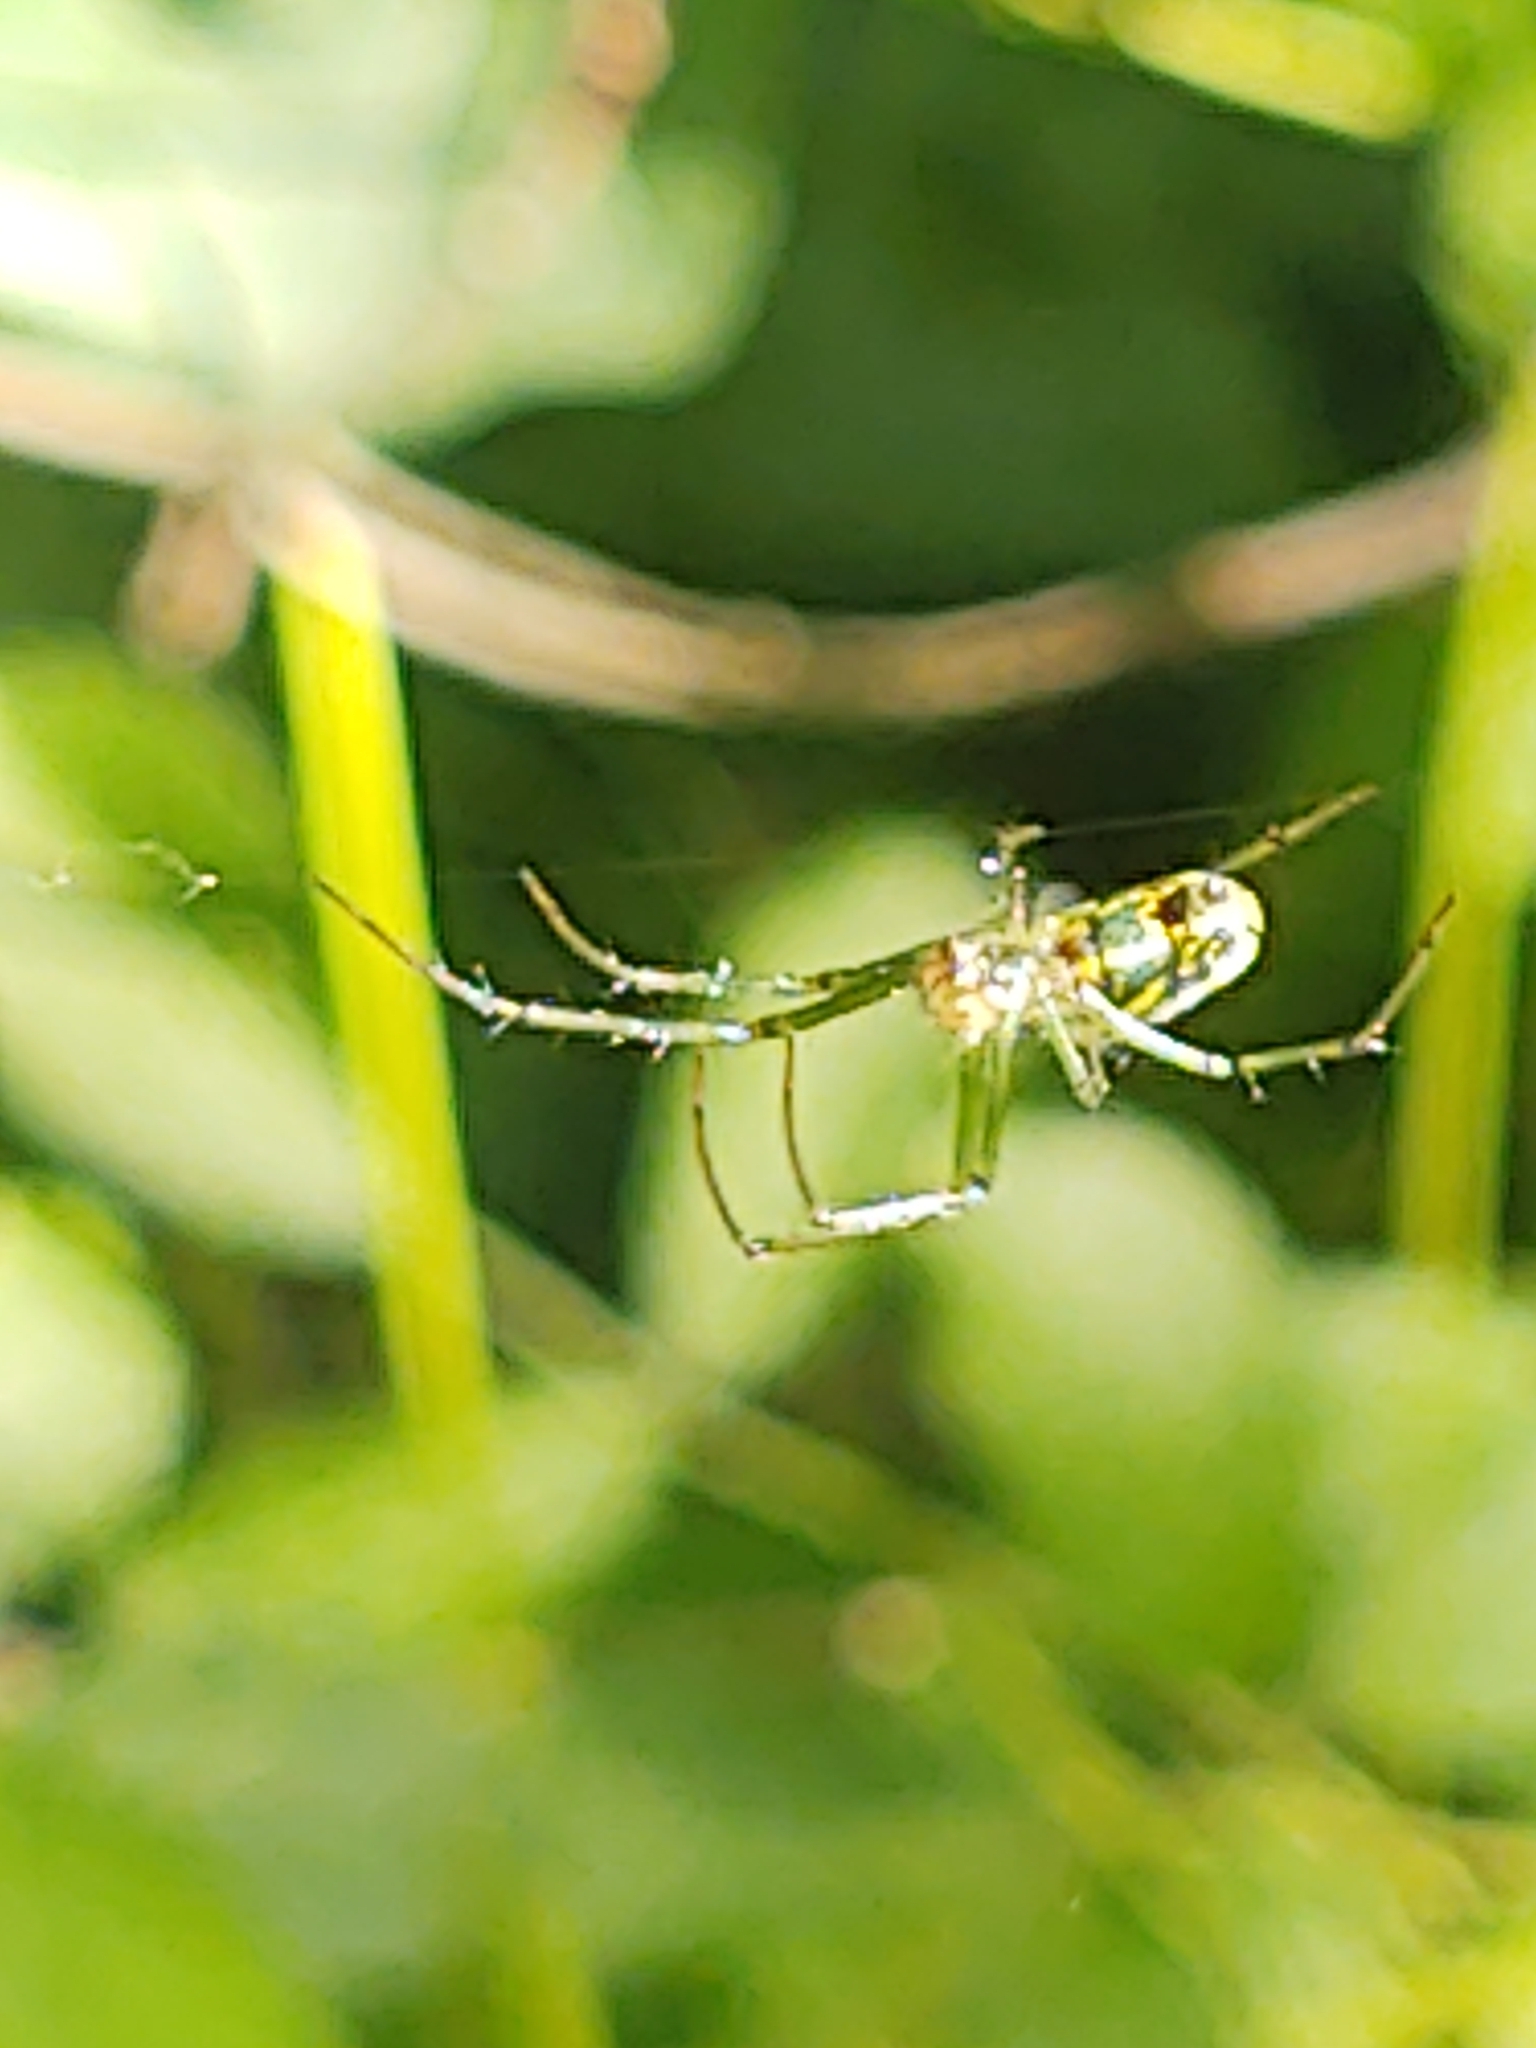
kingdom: Animalia
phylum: Arthropoda
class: Arachnida
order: Araneae
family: Tetragnathidae
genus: Leucauge
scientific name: Leucauge venusta
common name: Longjawed orb weavers
